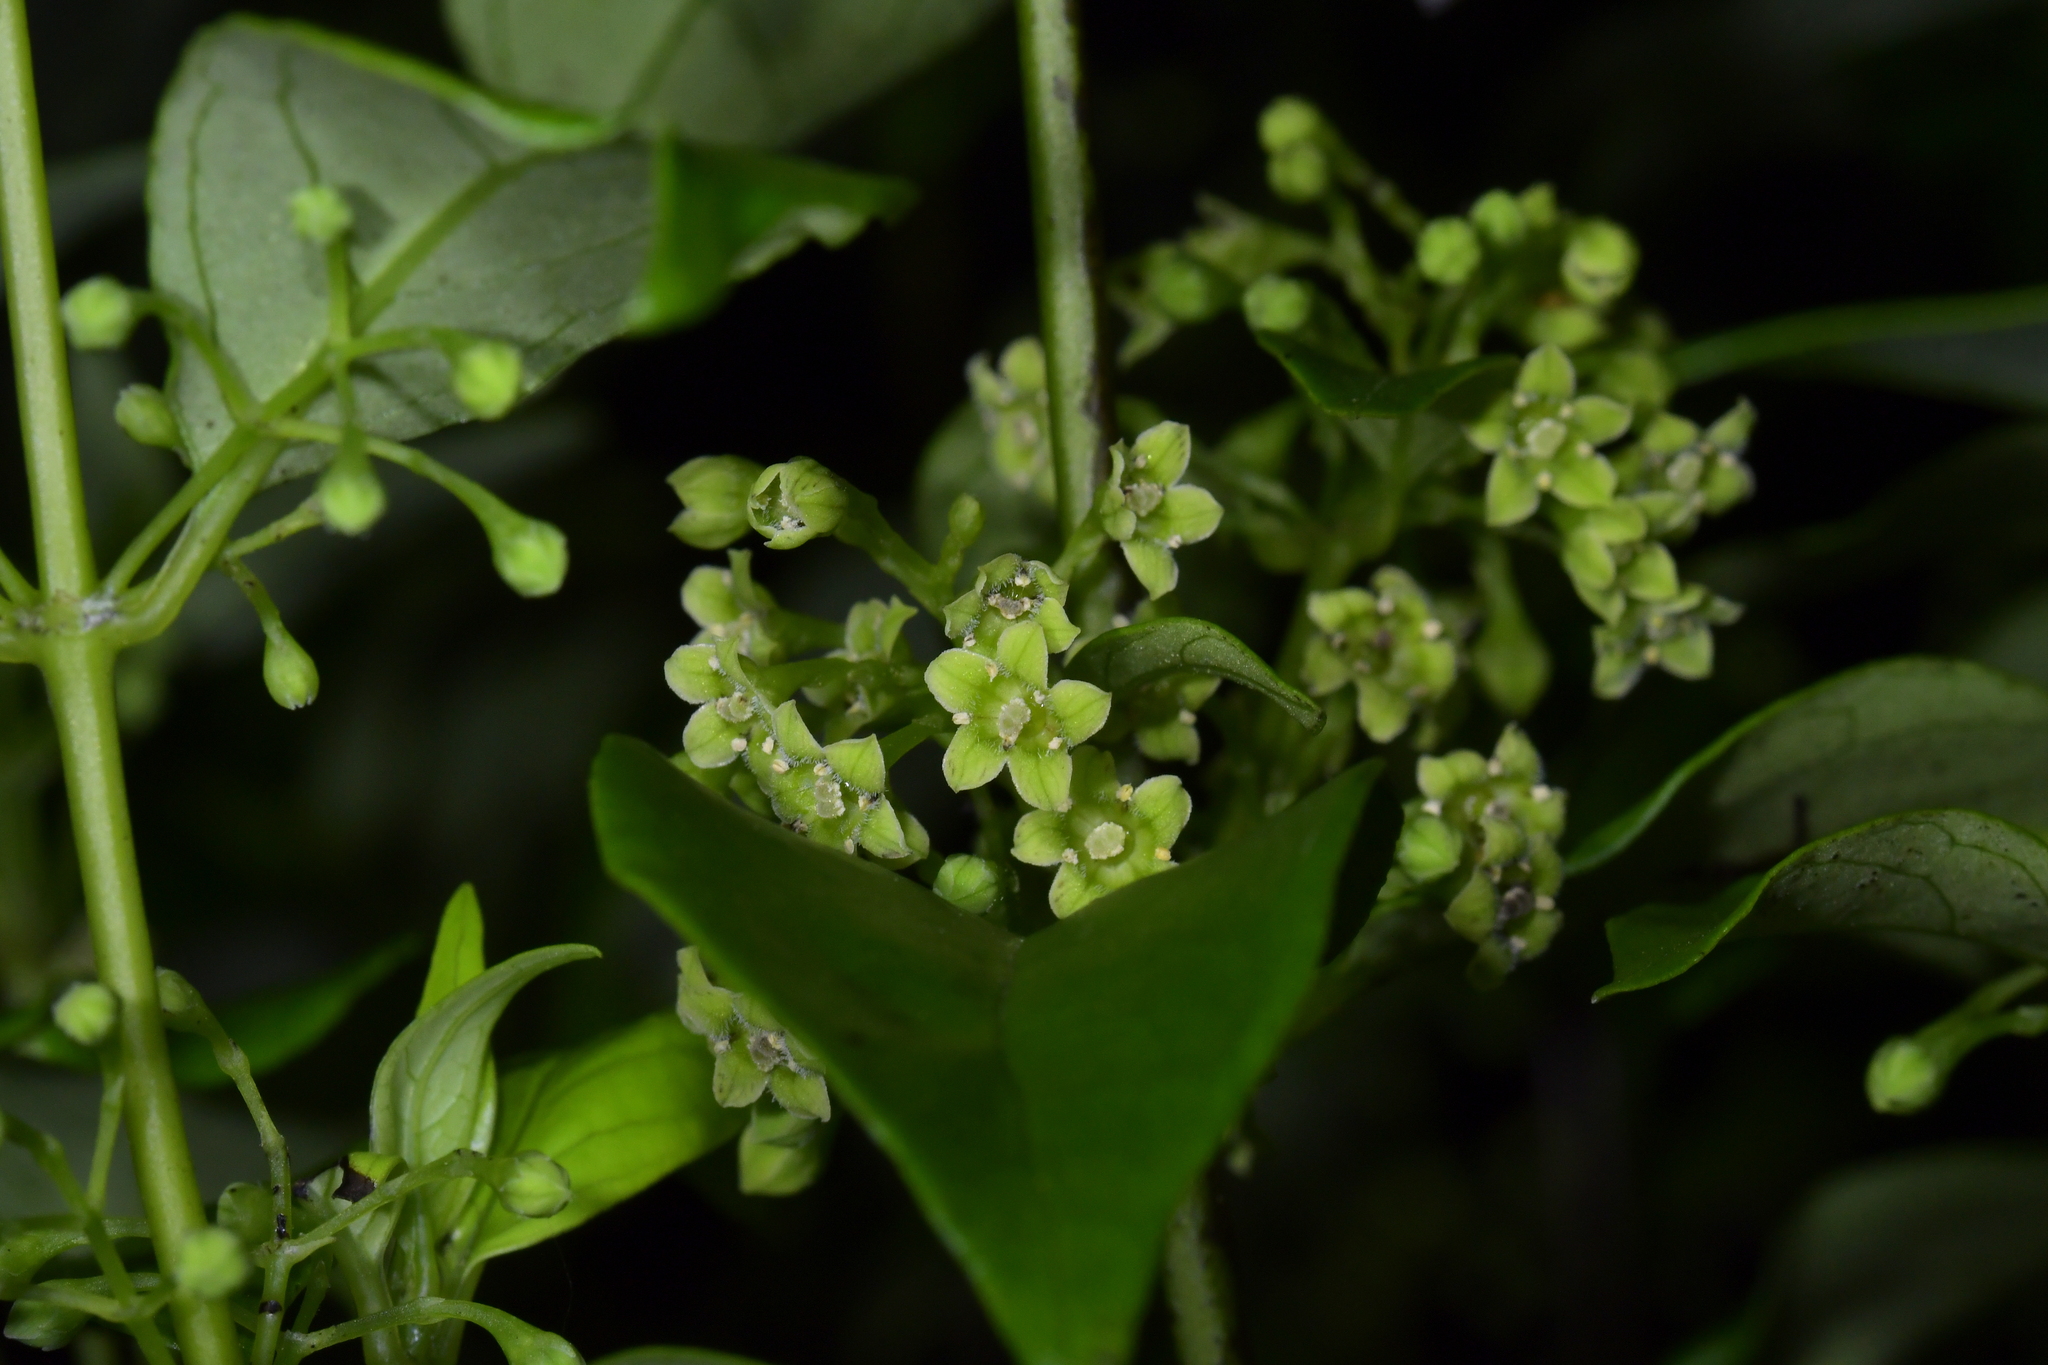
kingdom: Plantae
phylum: Tracheophyta
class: Magnoliopsida
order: Gentianales
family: Loganiaceae
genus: Geniostoma
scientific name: Geniostoma ligustrifolium
